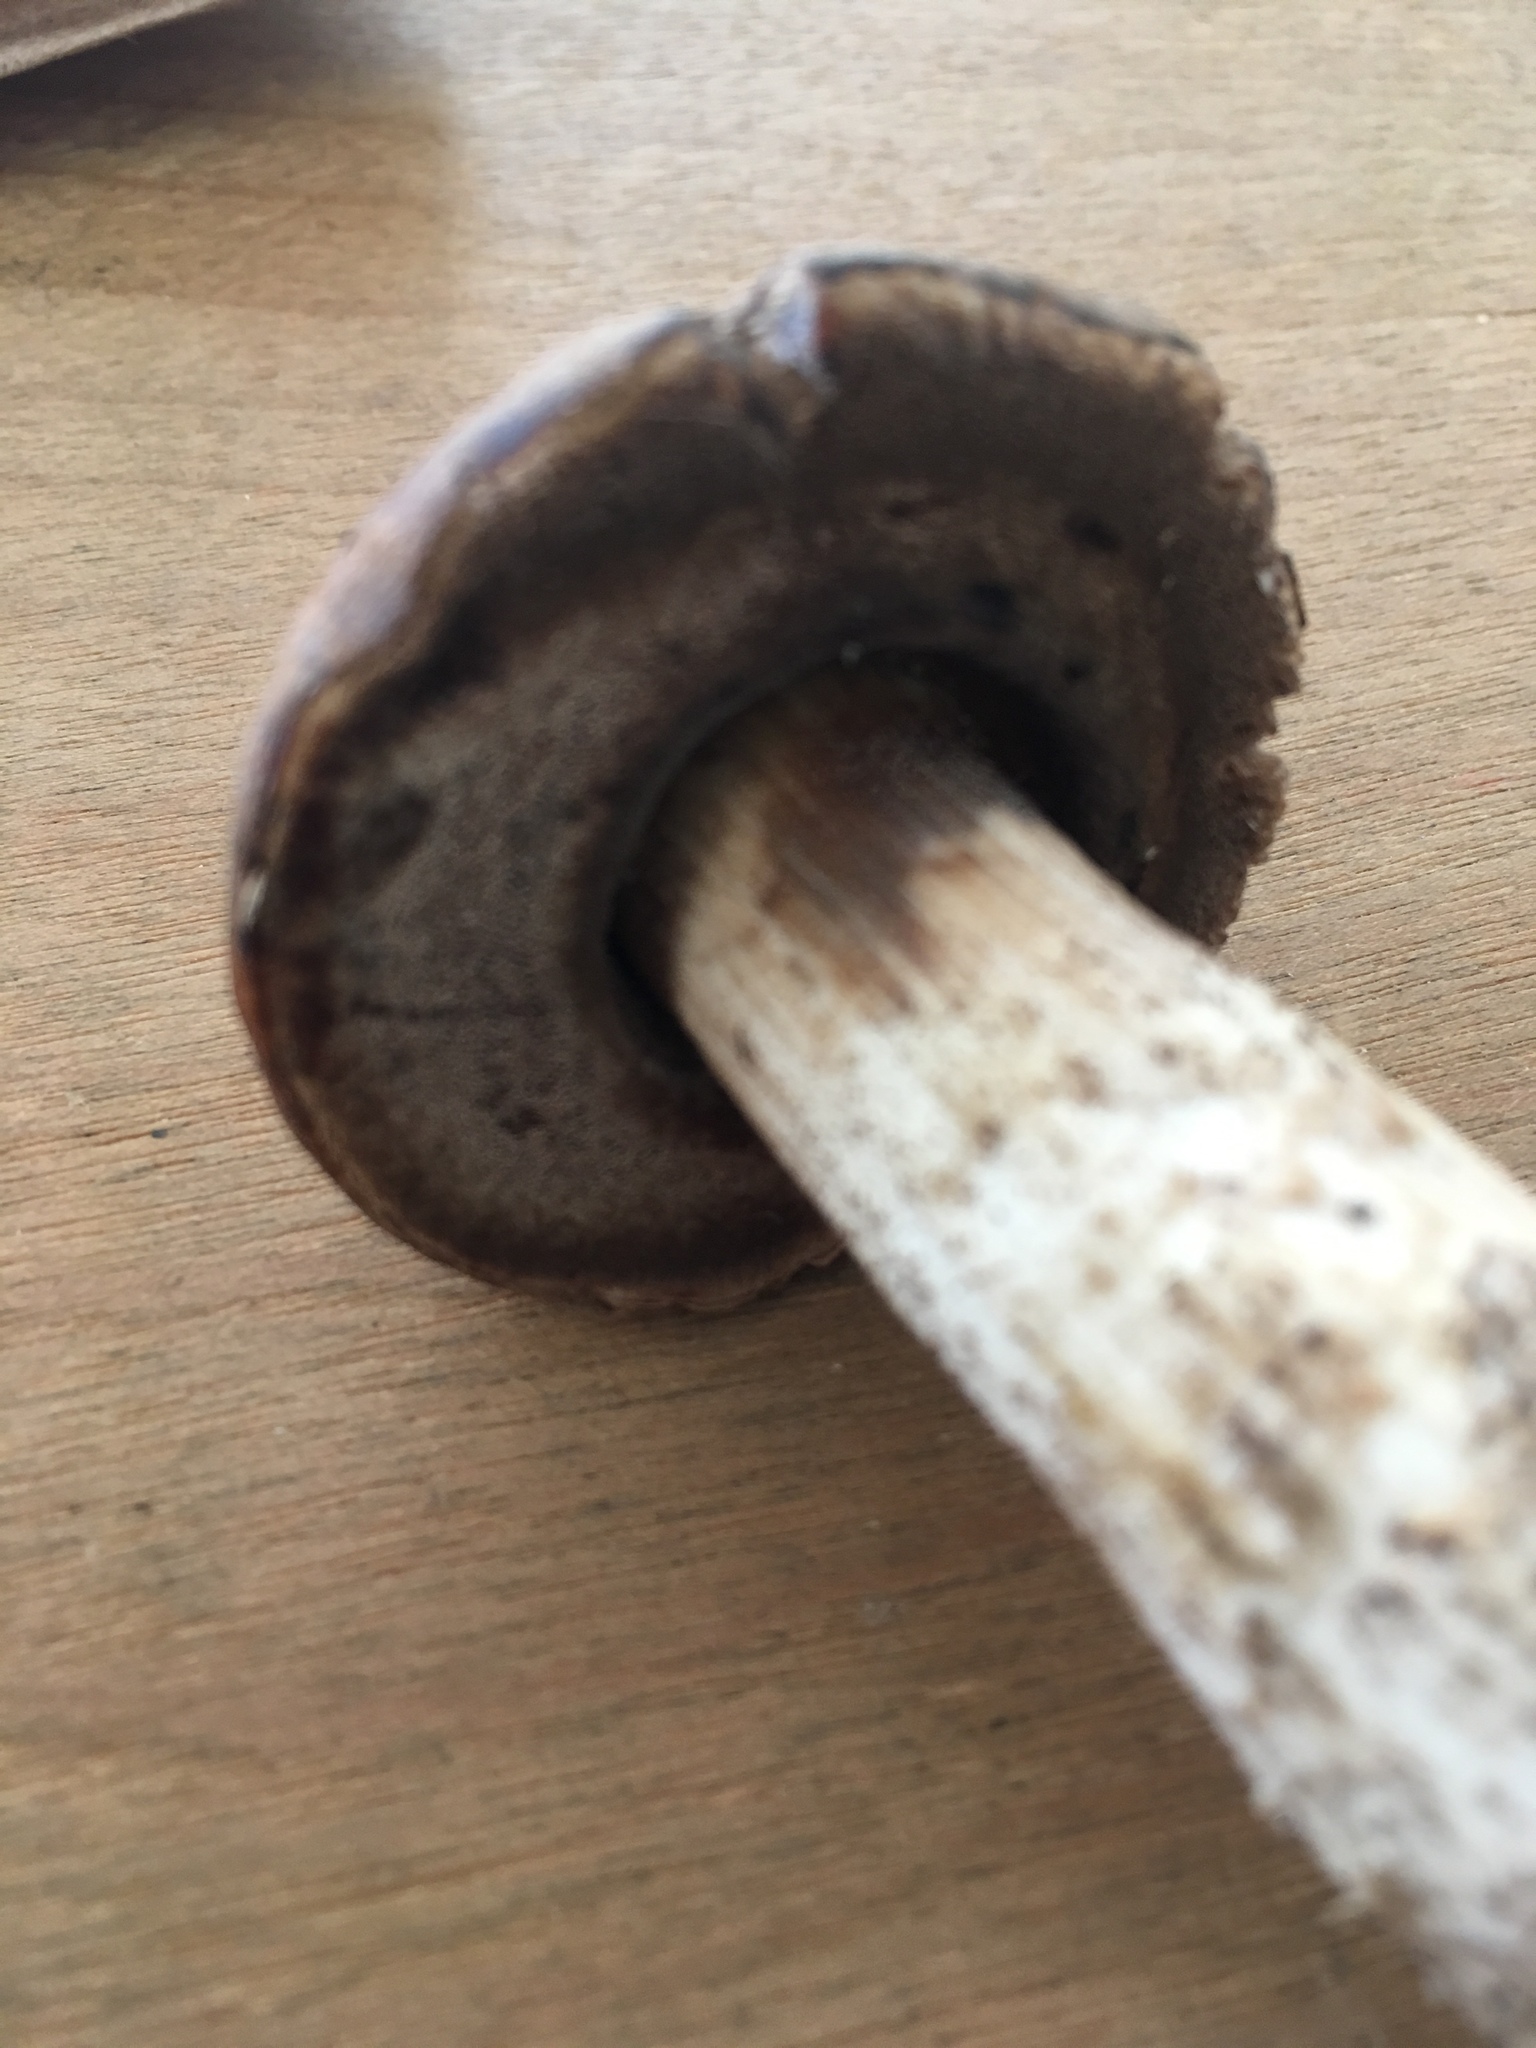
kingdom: Fungi
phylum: Basidiomycota
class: Agaricomycetes
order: Boletales
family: Boletaceae
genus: Leccinum
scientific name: Leccinum scabrum
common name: Blushing bolete
